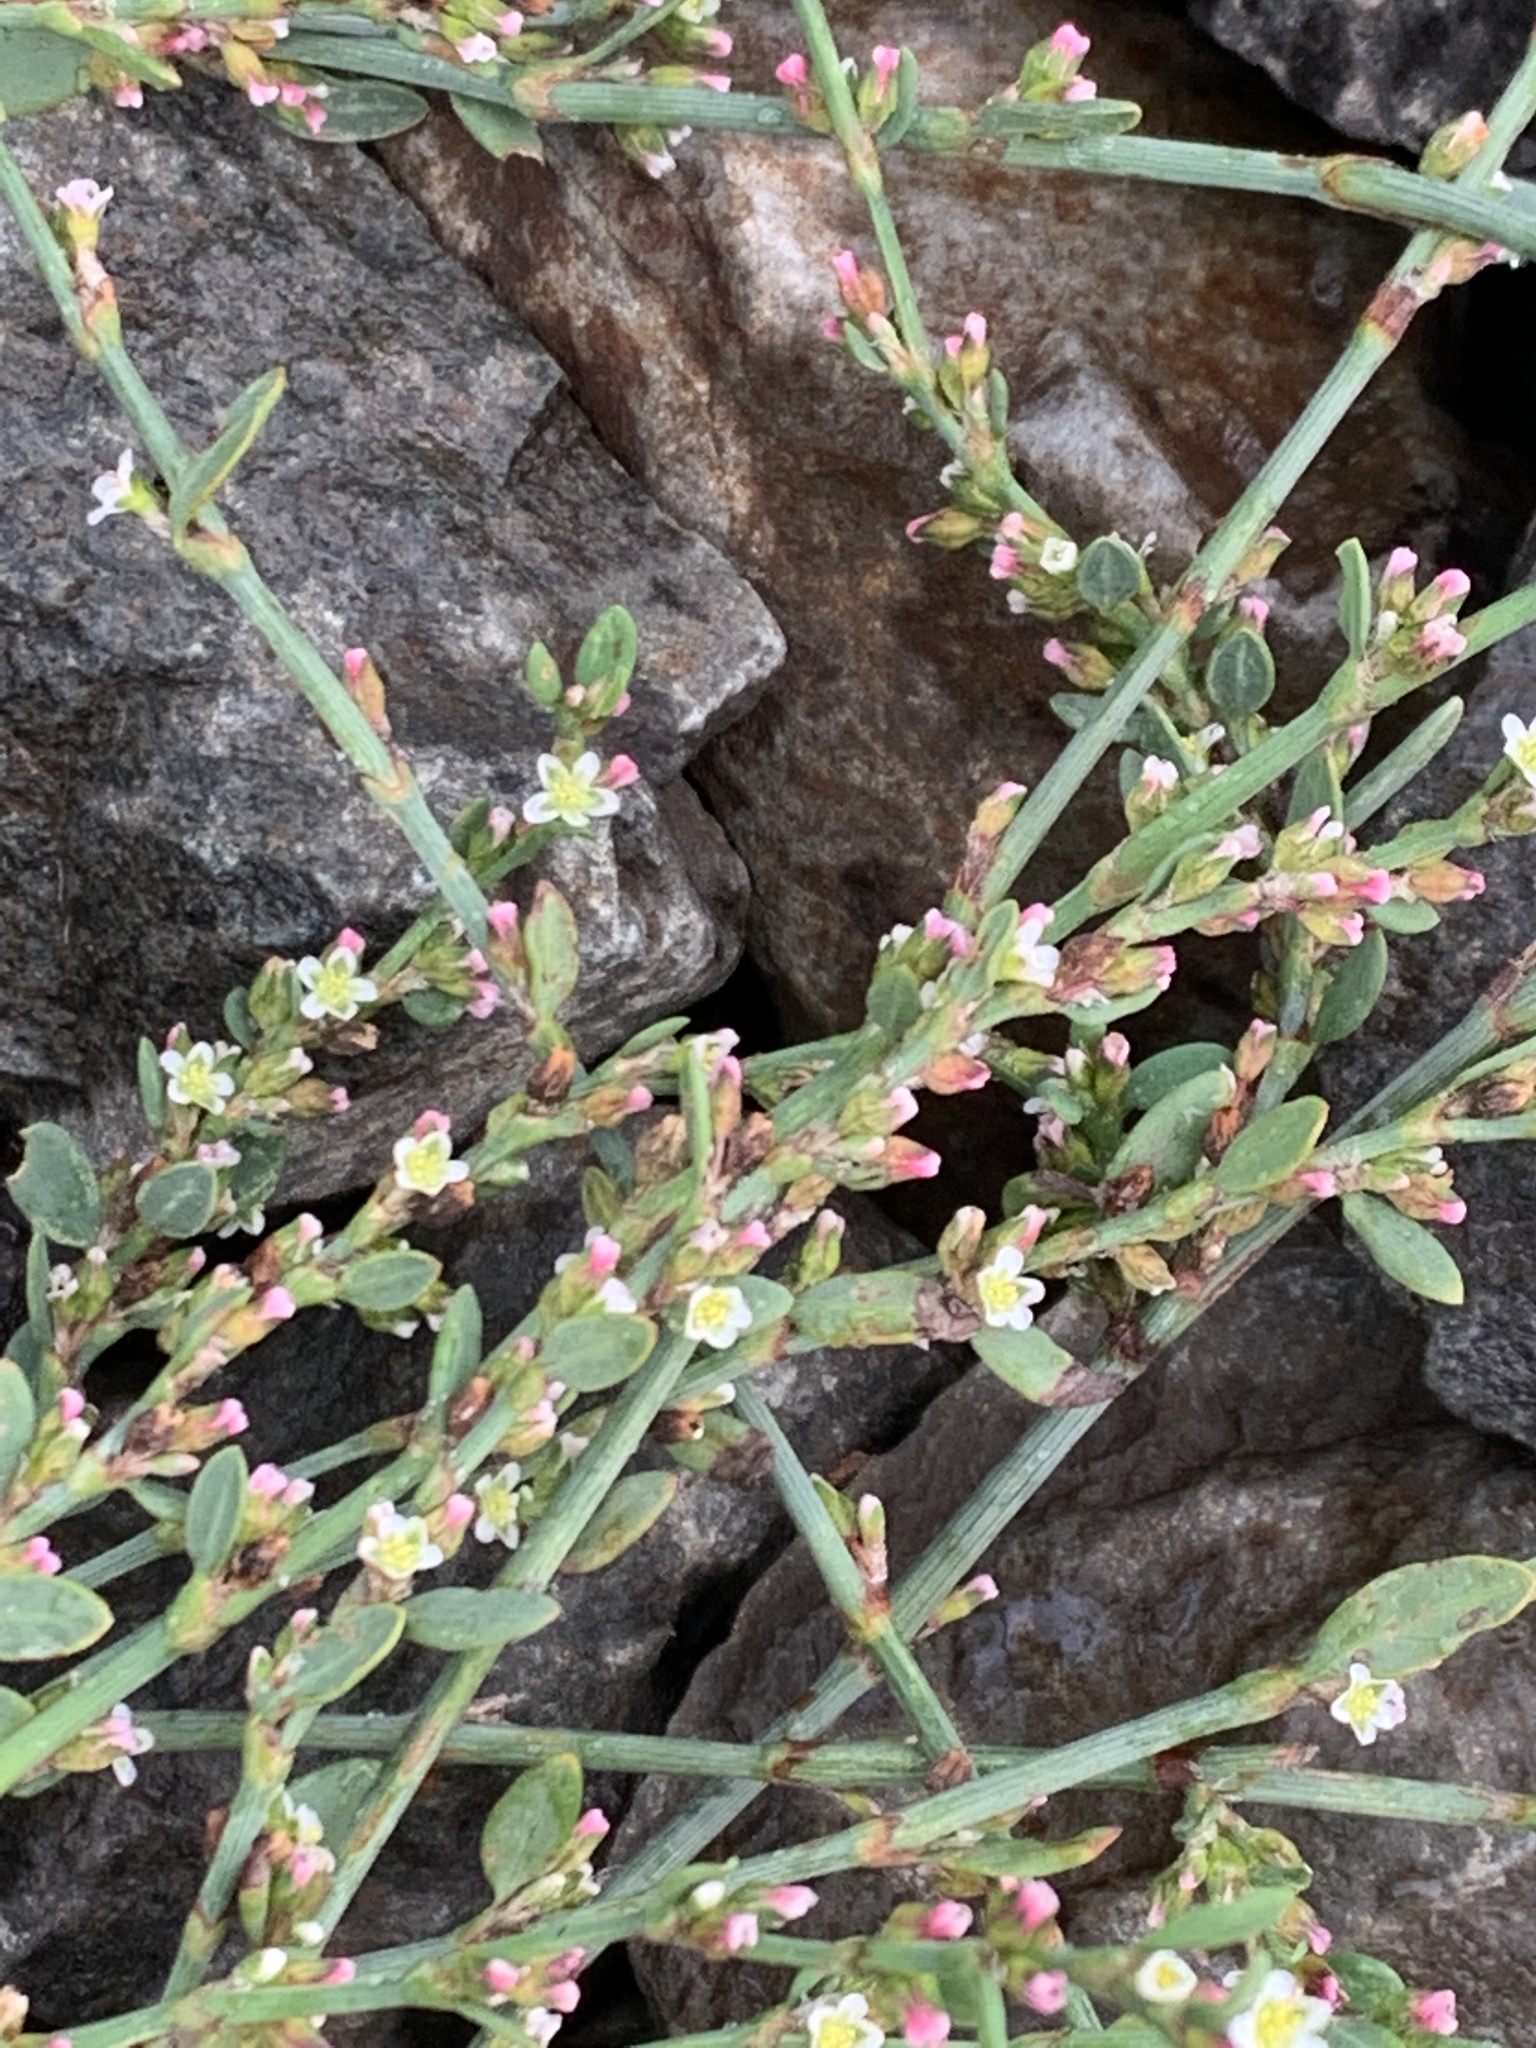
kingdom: Plantae
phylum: Tracheophyta
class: Magnoliopsida
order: Caryophyllales
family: Polygonaceae
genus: Polygonum
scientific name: Polygonum aviculare
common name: Prostrate knotweed
